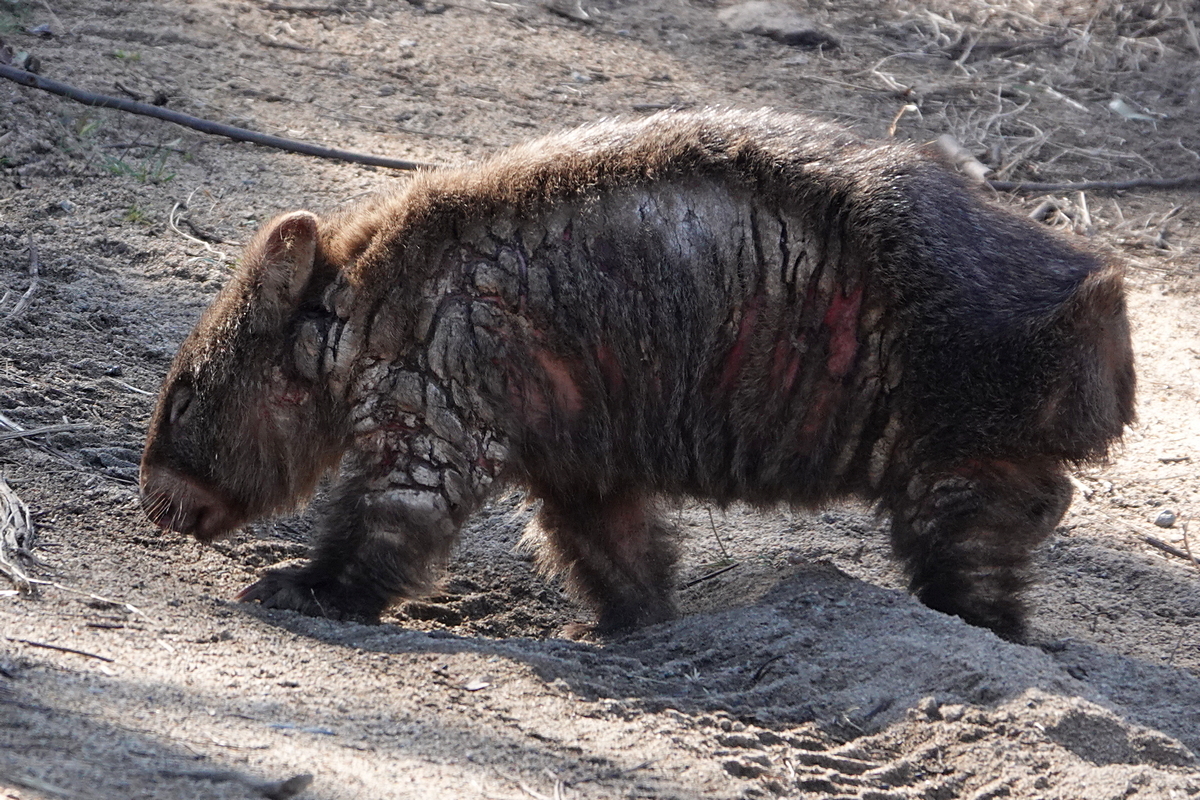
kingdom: Animalia
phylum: Chordata
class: Mammalia
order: Diprotodontia
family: Vombatidae
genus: Vombatus
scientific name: Vombatus ursinus
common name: Common wombat
